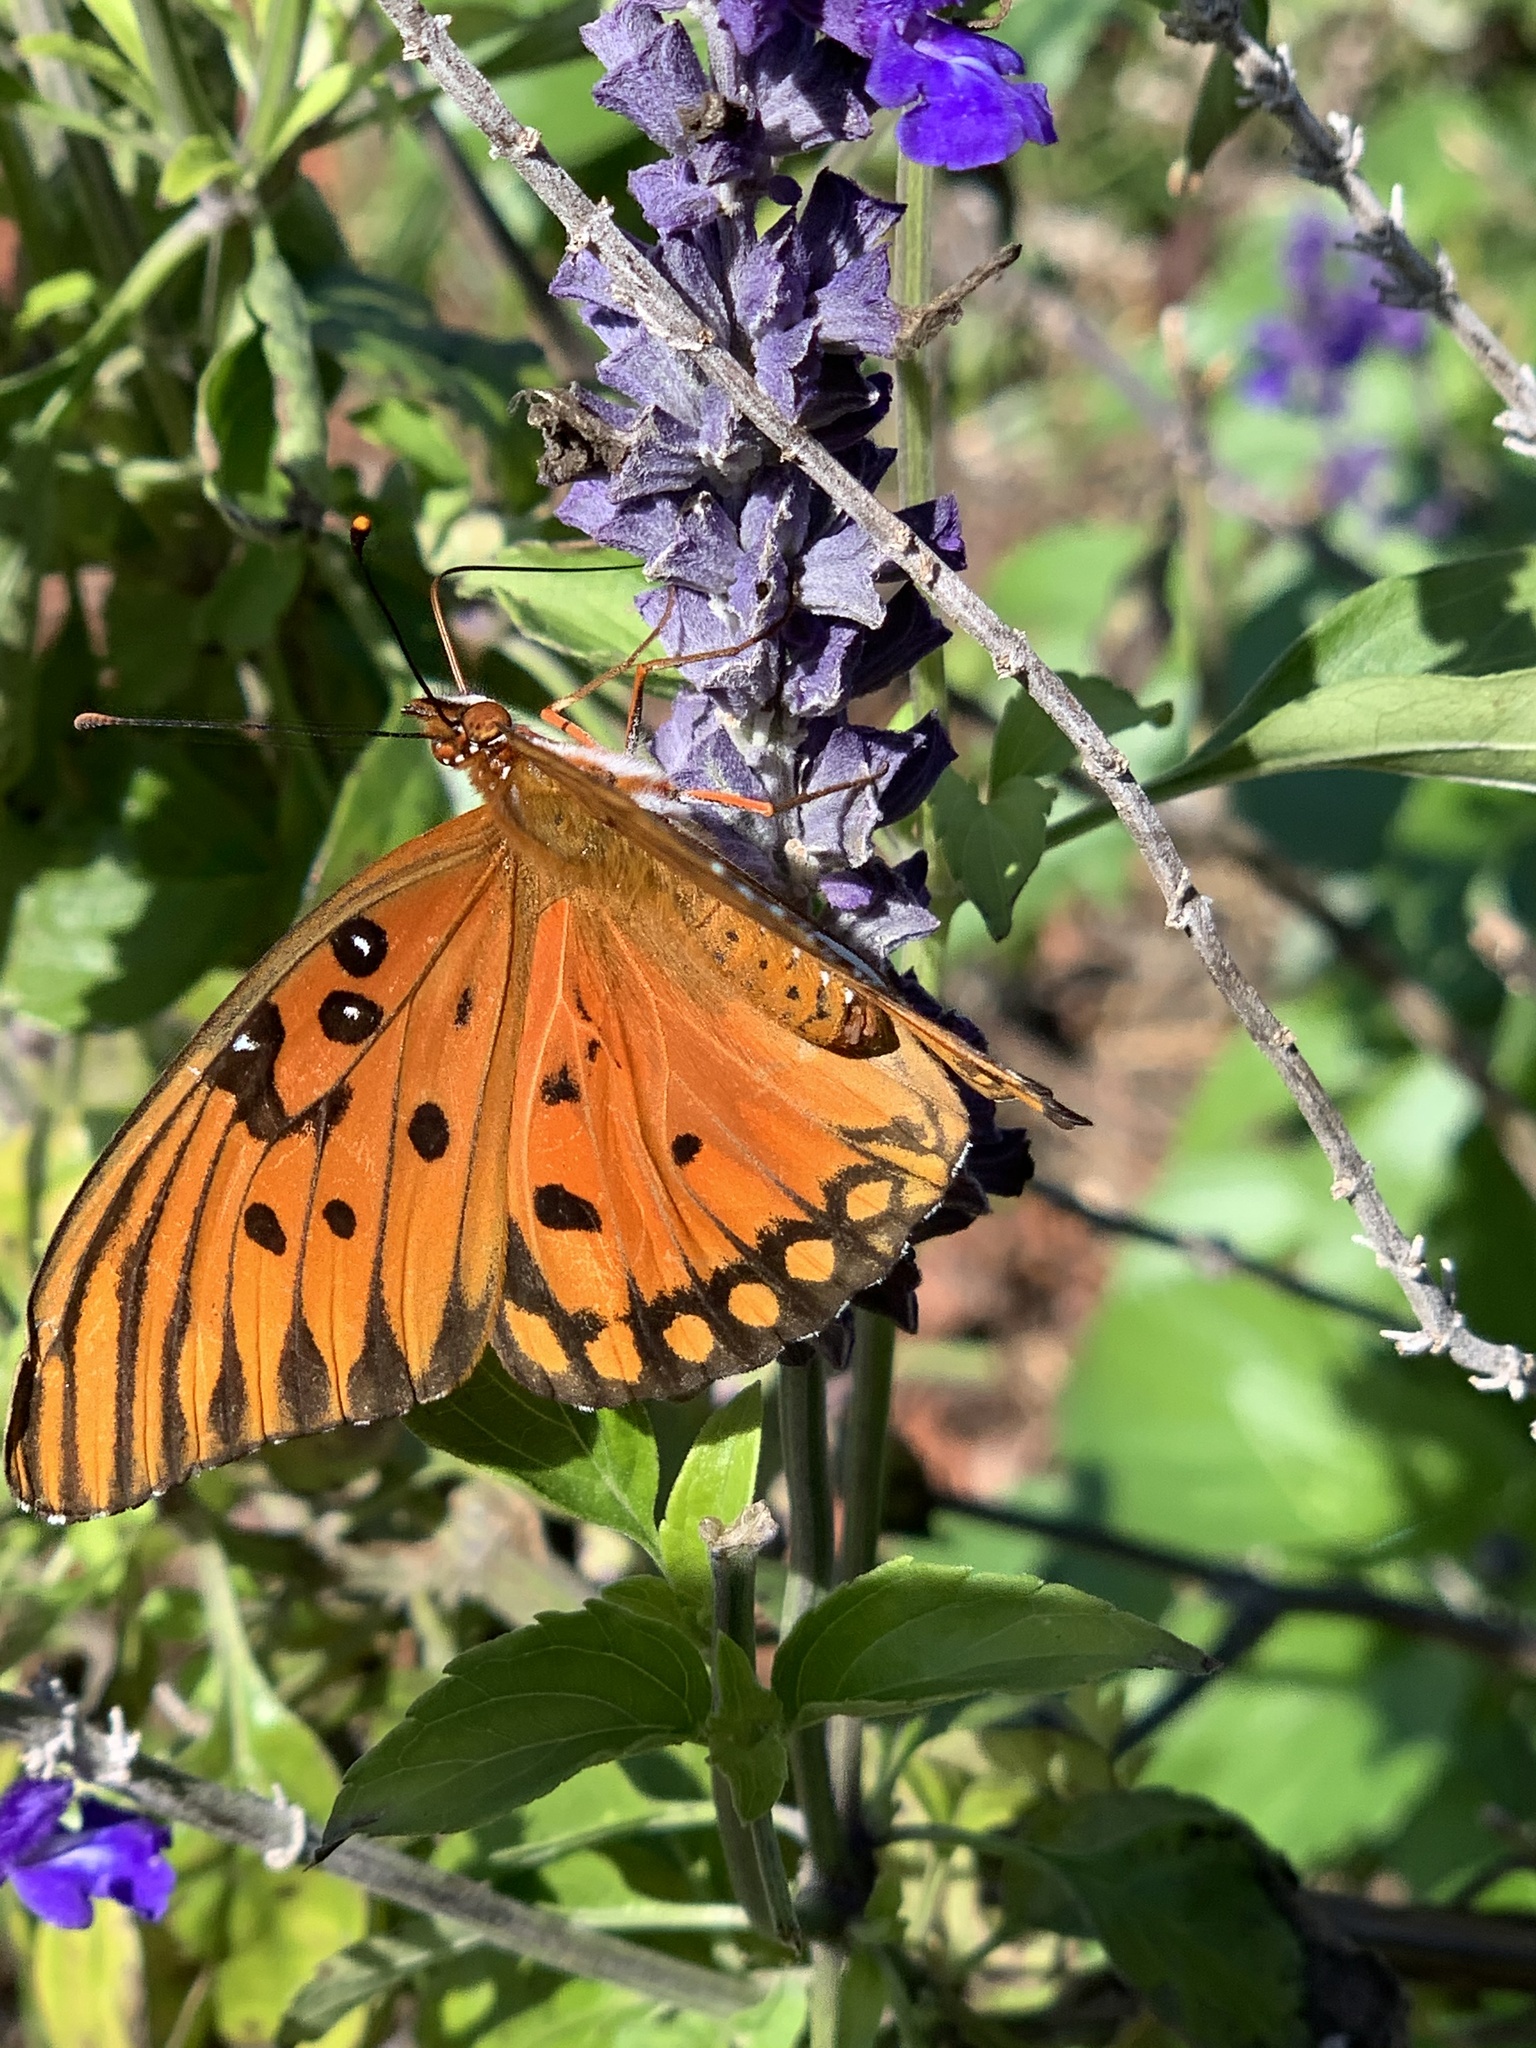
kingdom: Animalia
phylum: Arthropoda
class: Insecta
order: Lepidoptera
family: Nymphalidae
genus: Dione
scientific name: Dione vanillae
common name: Gulf fritillary
